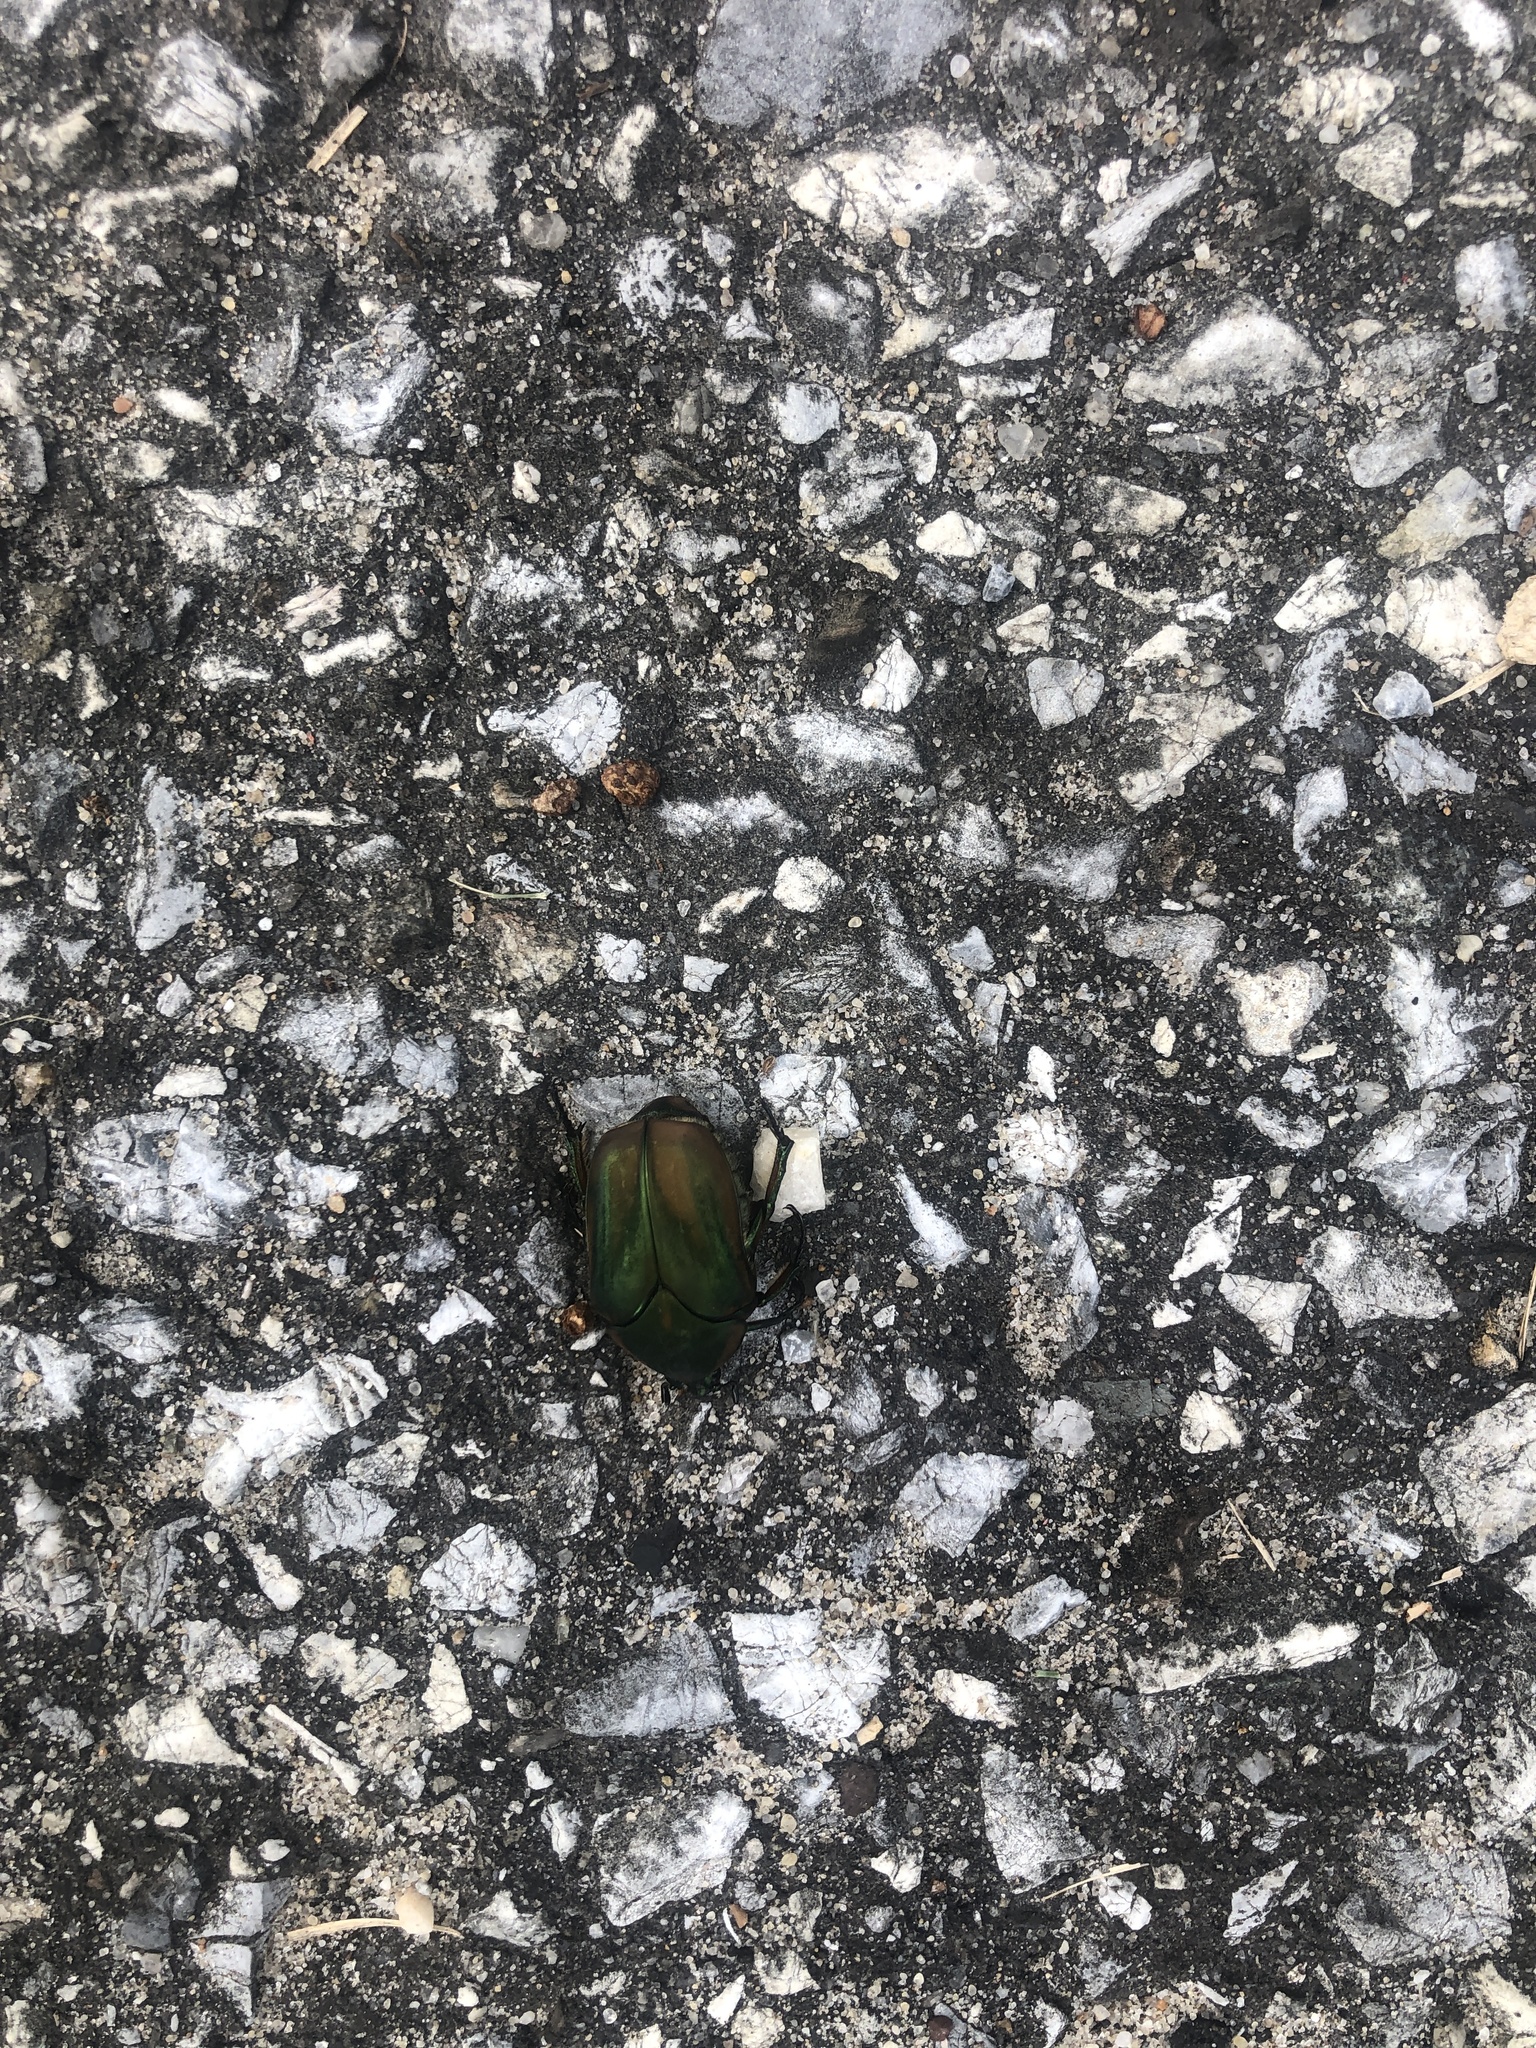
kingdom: Animalia
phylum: Arthropoda
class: Insecta
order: Coleoptera
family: Scarabaeidae
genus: Cotinis
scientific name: Cotinis nitida
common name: Common green june beetle
